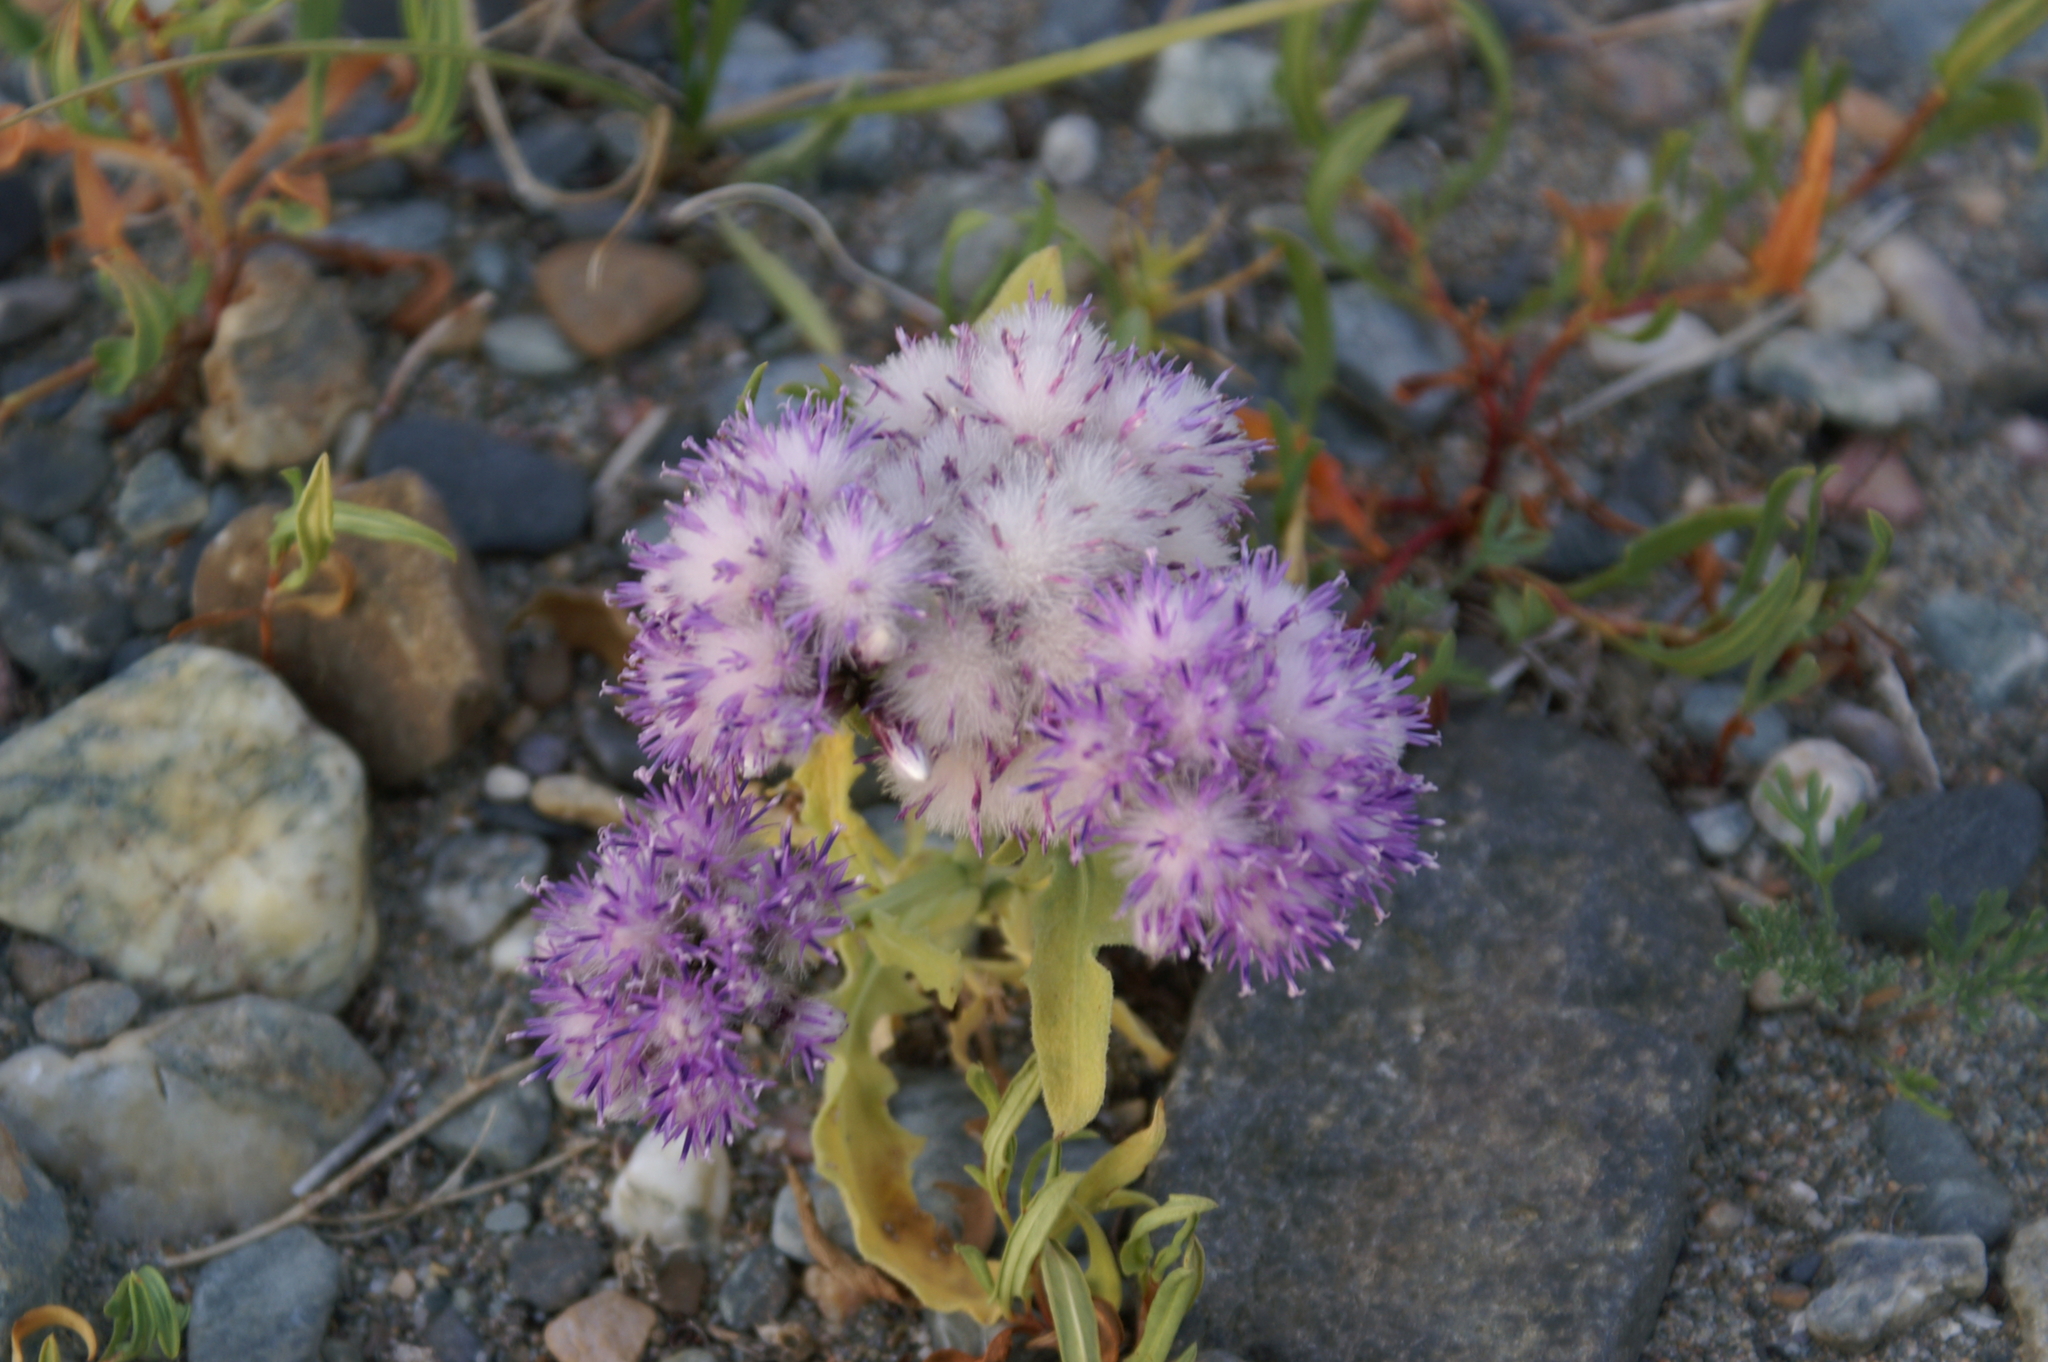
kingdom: Plantae
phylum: Tracheophyta
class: Magnoliopsida
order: Asterales
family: Asteraceae
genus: Saussurea
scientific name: Saussurea daurica
